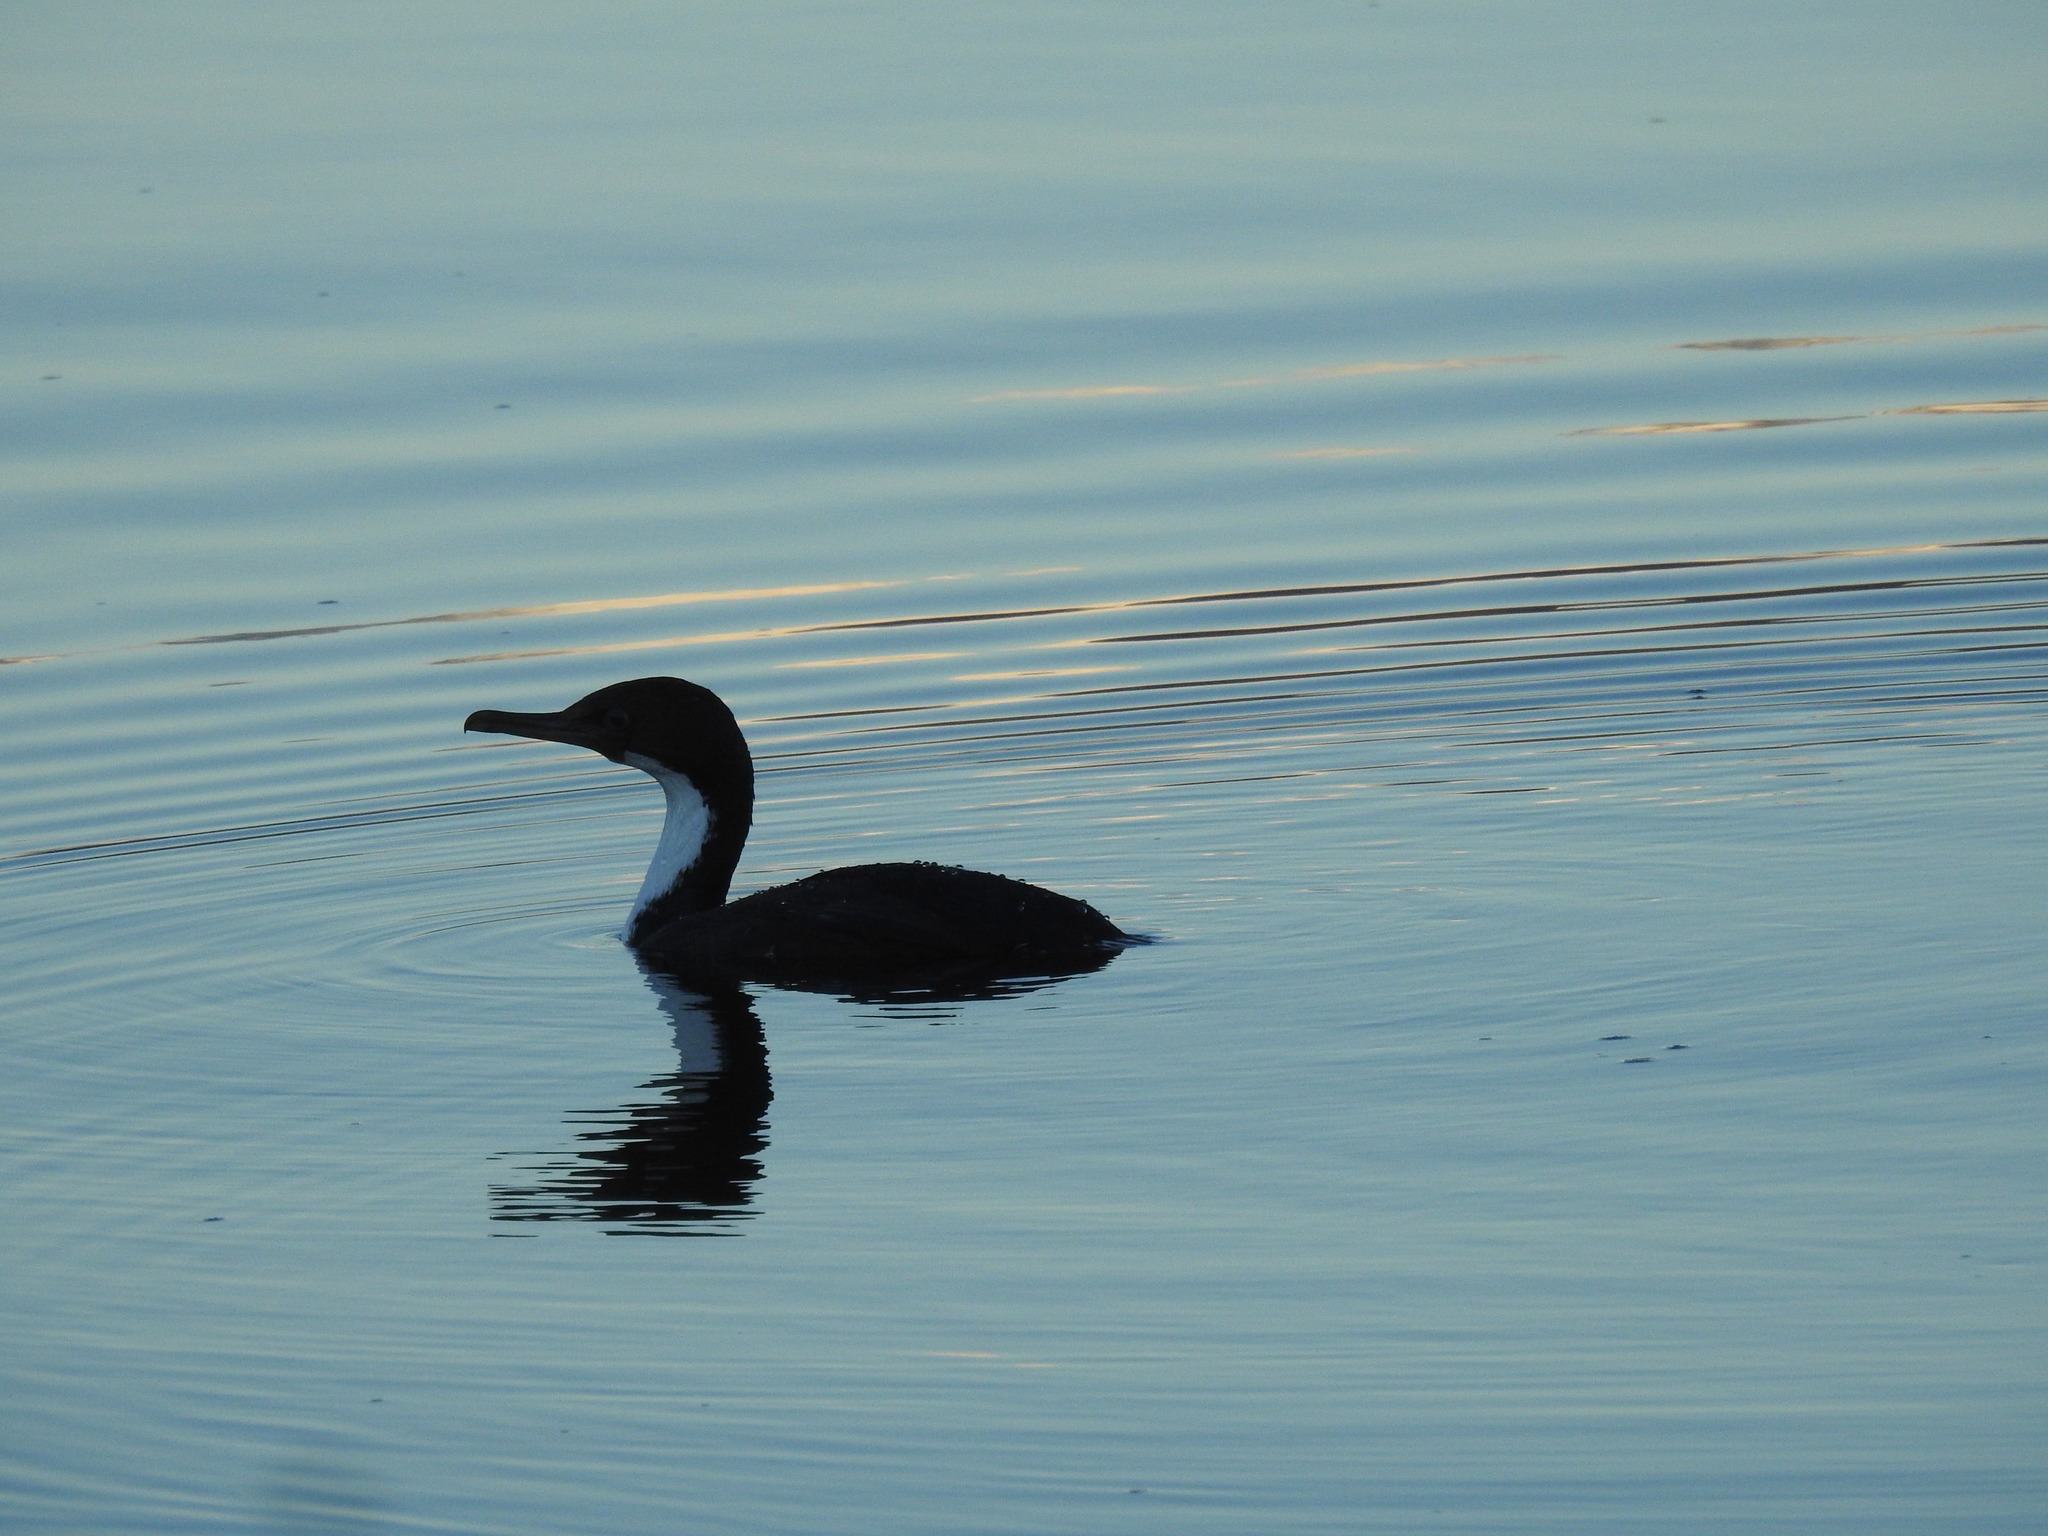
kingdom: Animalia
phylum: Chordata
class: Aves
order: Suliformes
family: Phalacrocoracidae
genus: Leucocarbo
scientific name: Leucocarbo atriceps
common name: Imperial shag
